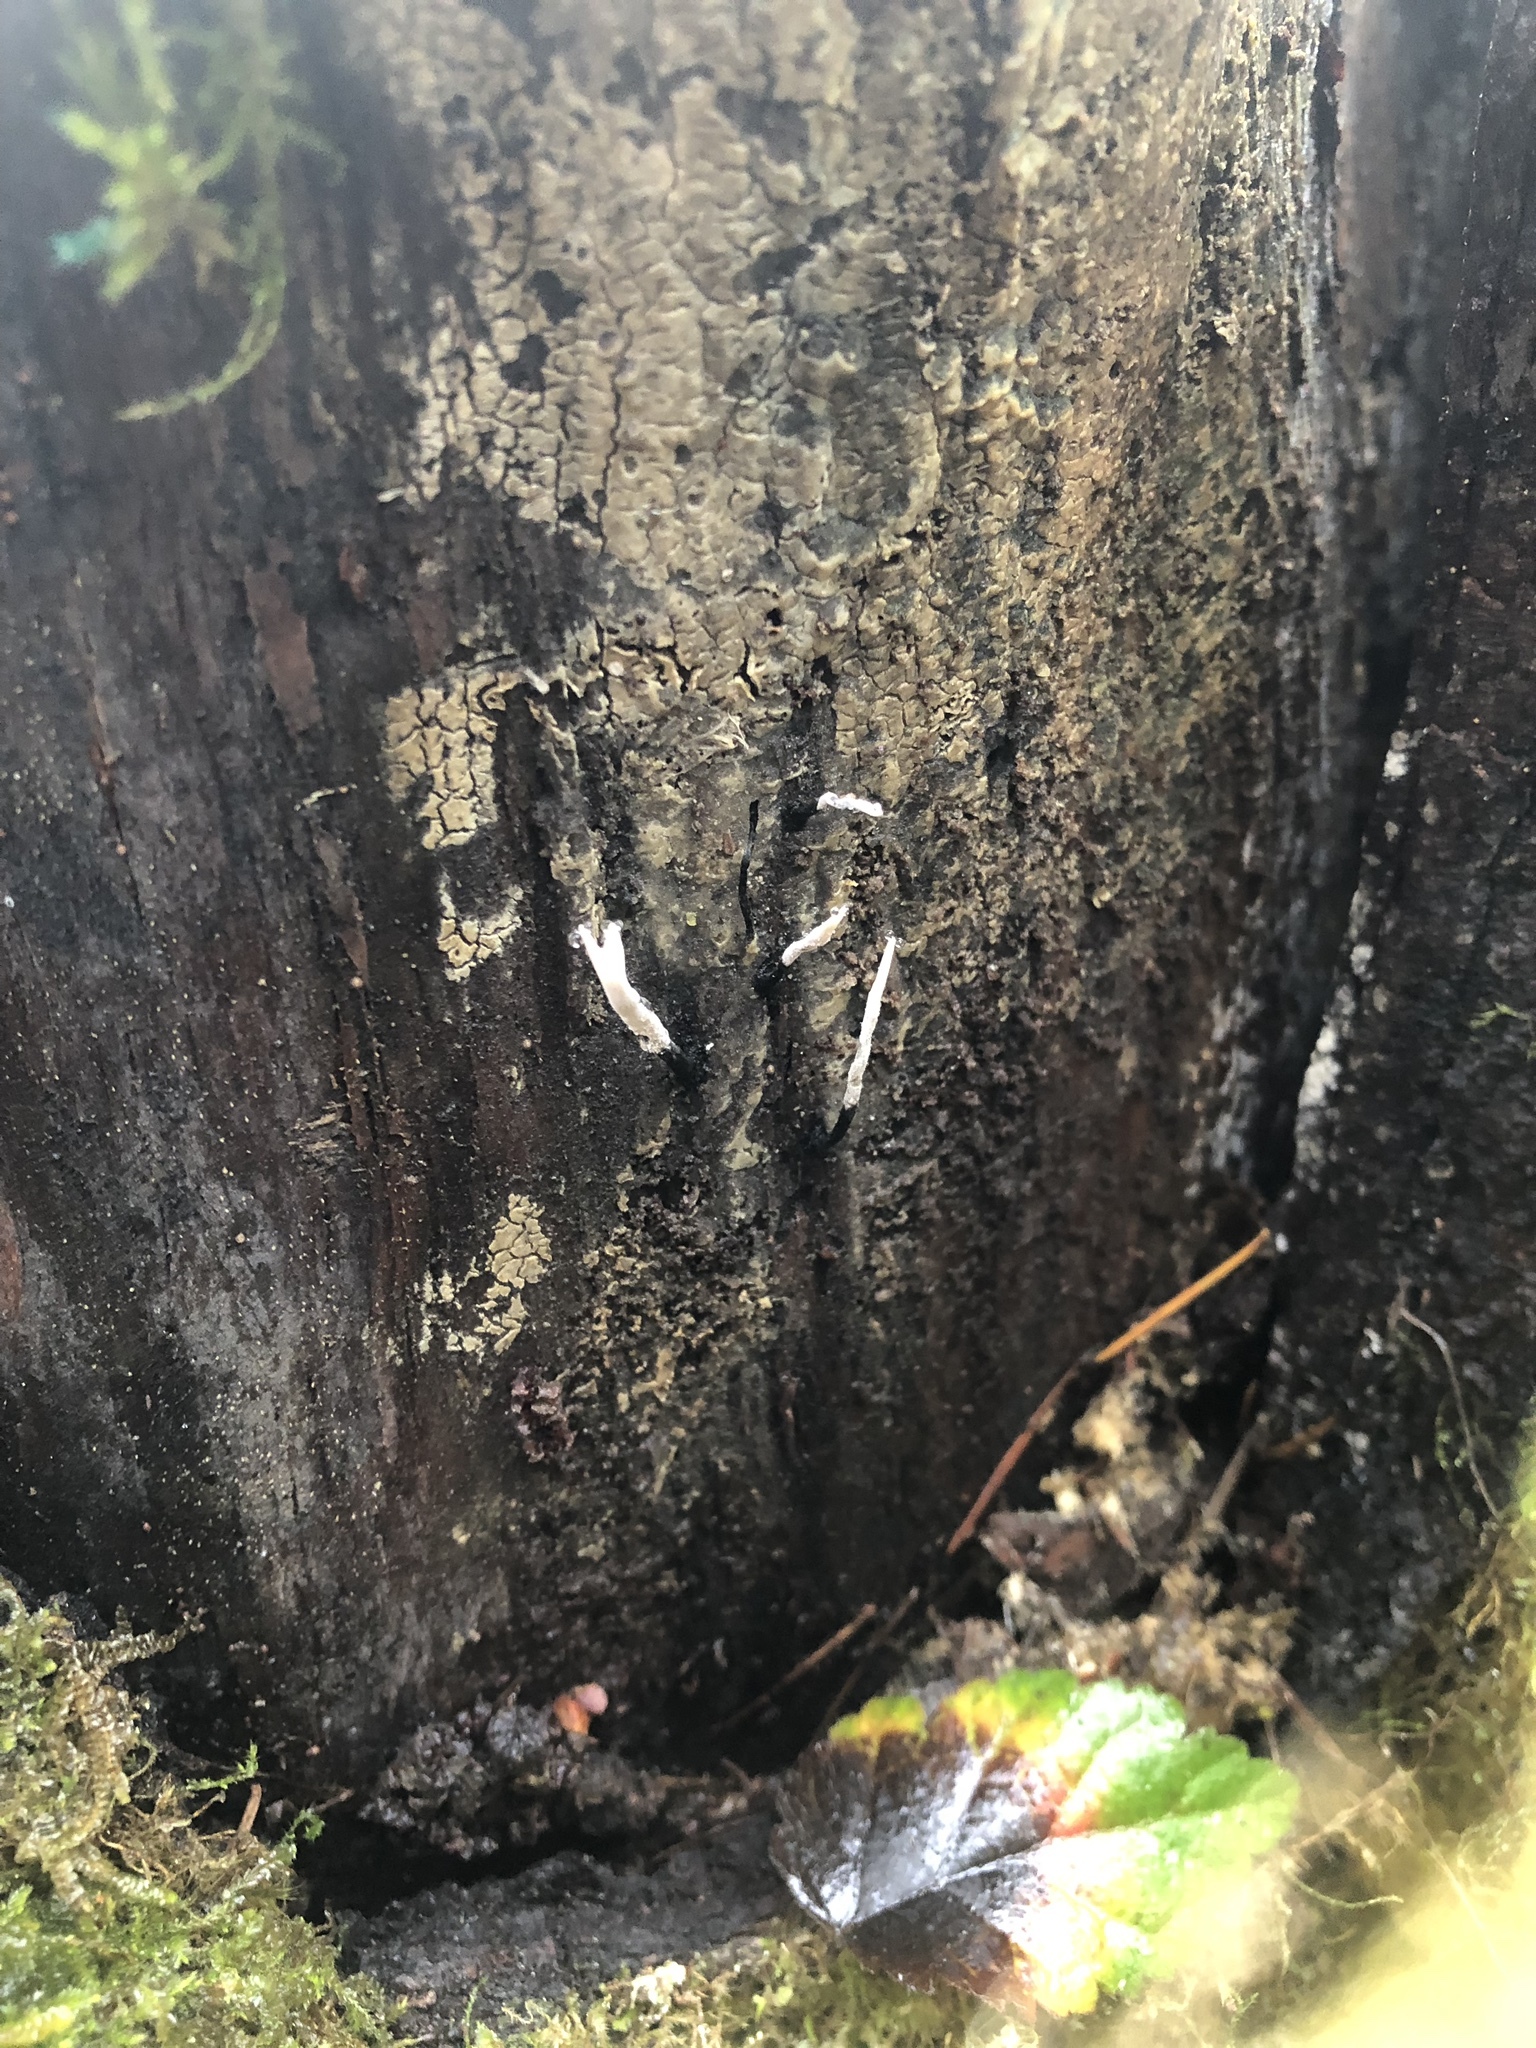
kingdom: Fungi
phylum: Ascomycota
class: Sordariomycetes
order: Xylariales
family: Xylariaceae
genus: Xylaria
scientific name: Xylaria hypoxylon
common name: Candle-snuff fungus
